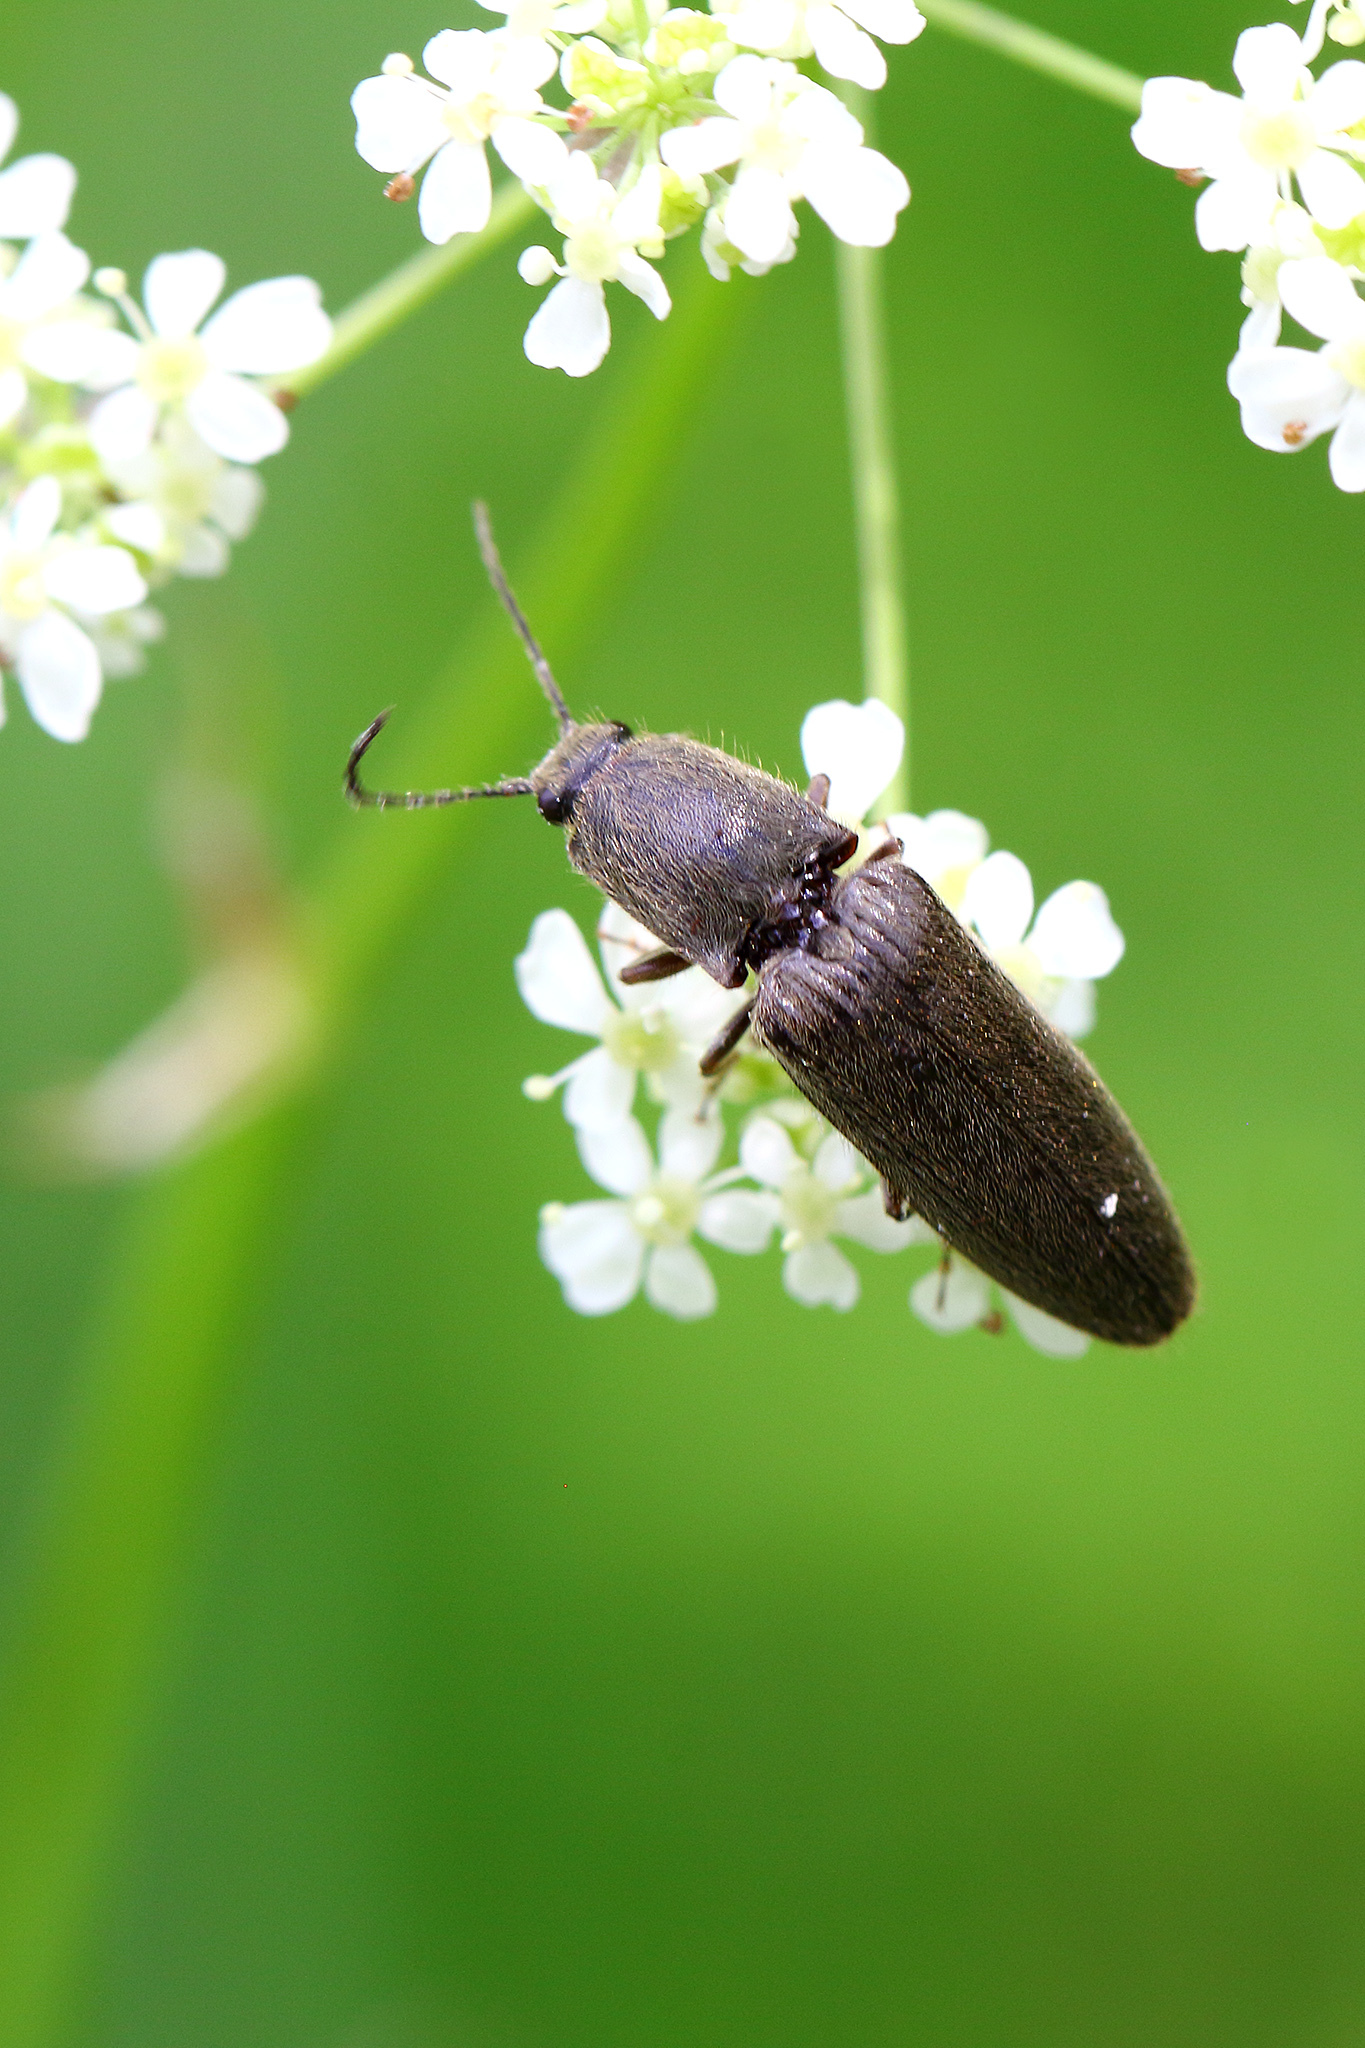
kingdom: Animalia
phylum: Arthropoda
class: Insecta
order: Coleoptera
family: Elateridae
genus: Athous
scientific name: Athous haemorrhoidalis
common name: Red-brown click beetle
